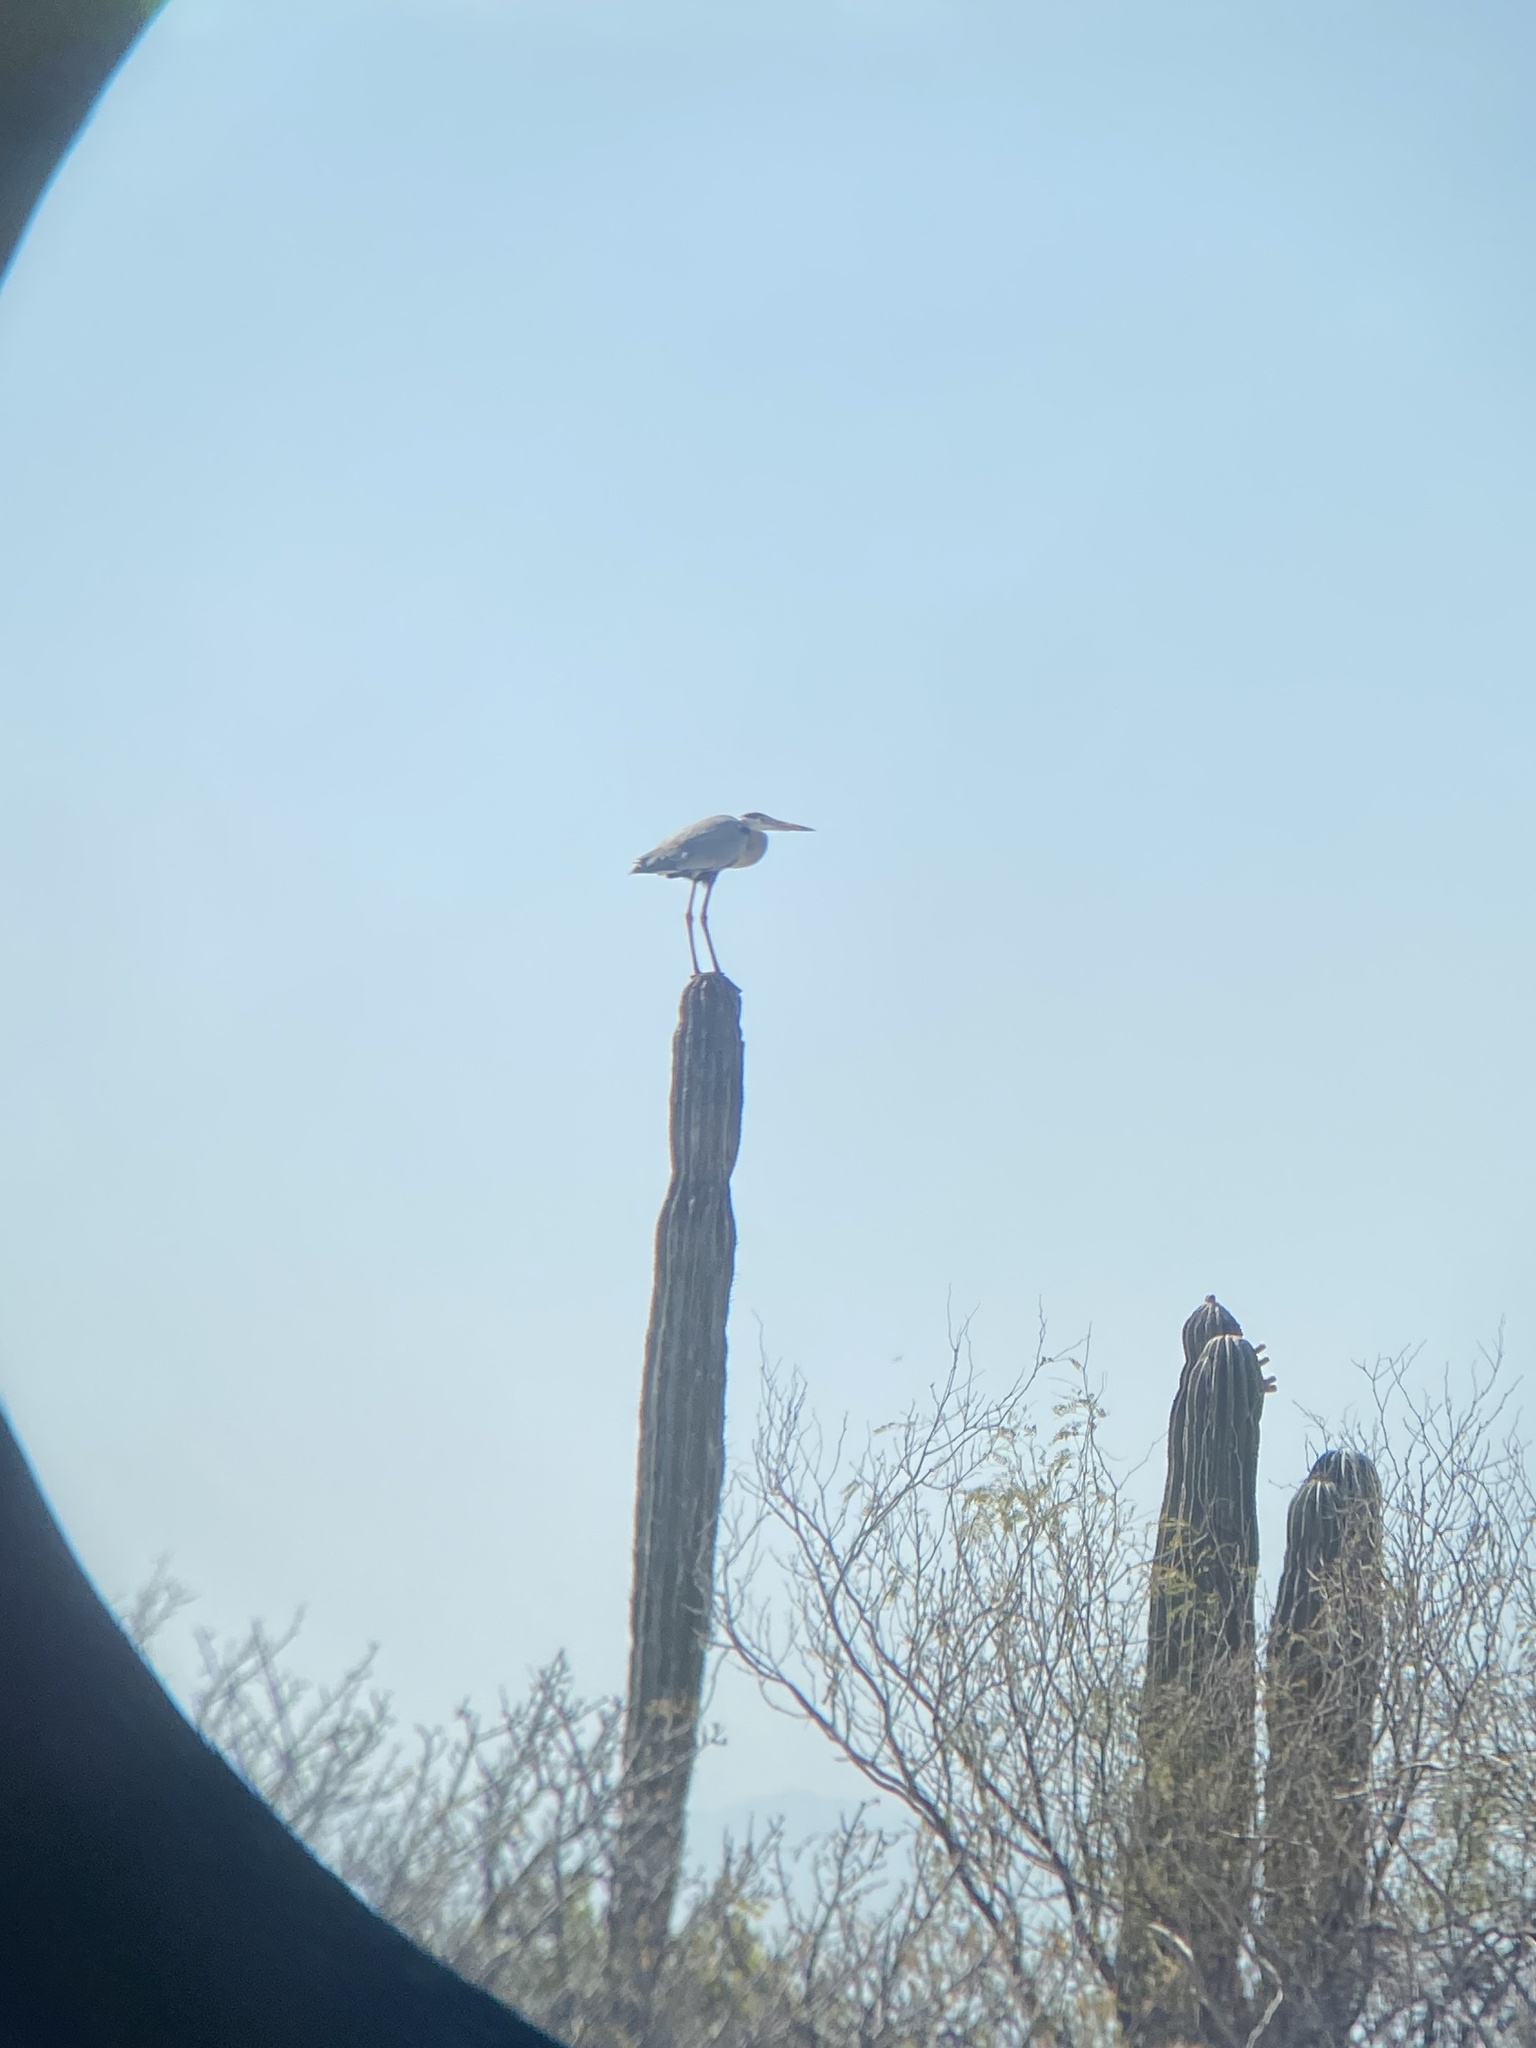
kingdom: Animalia
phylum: Chordata
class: Aves
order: Pelecaniformes
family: Ardeidae
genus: Ardea
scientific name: Ardea herodias
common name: Great blue heron
